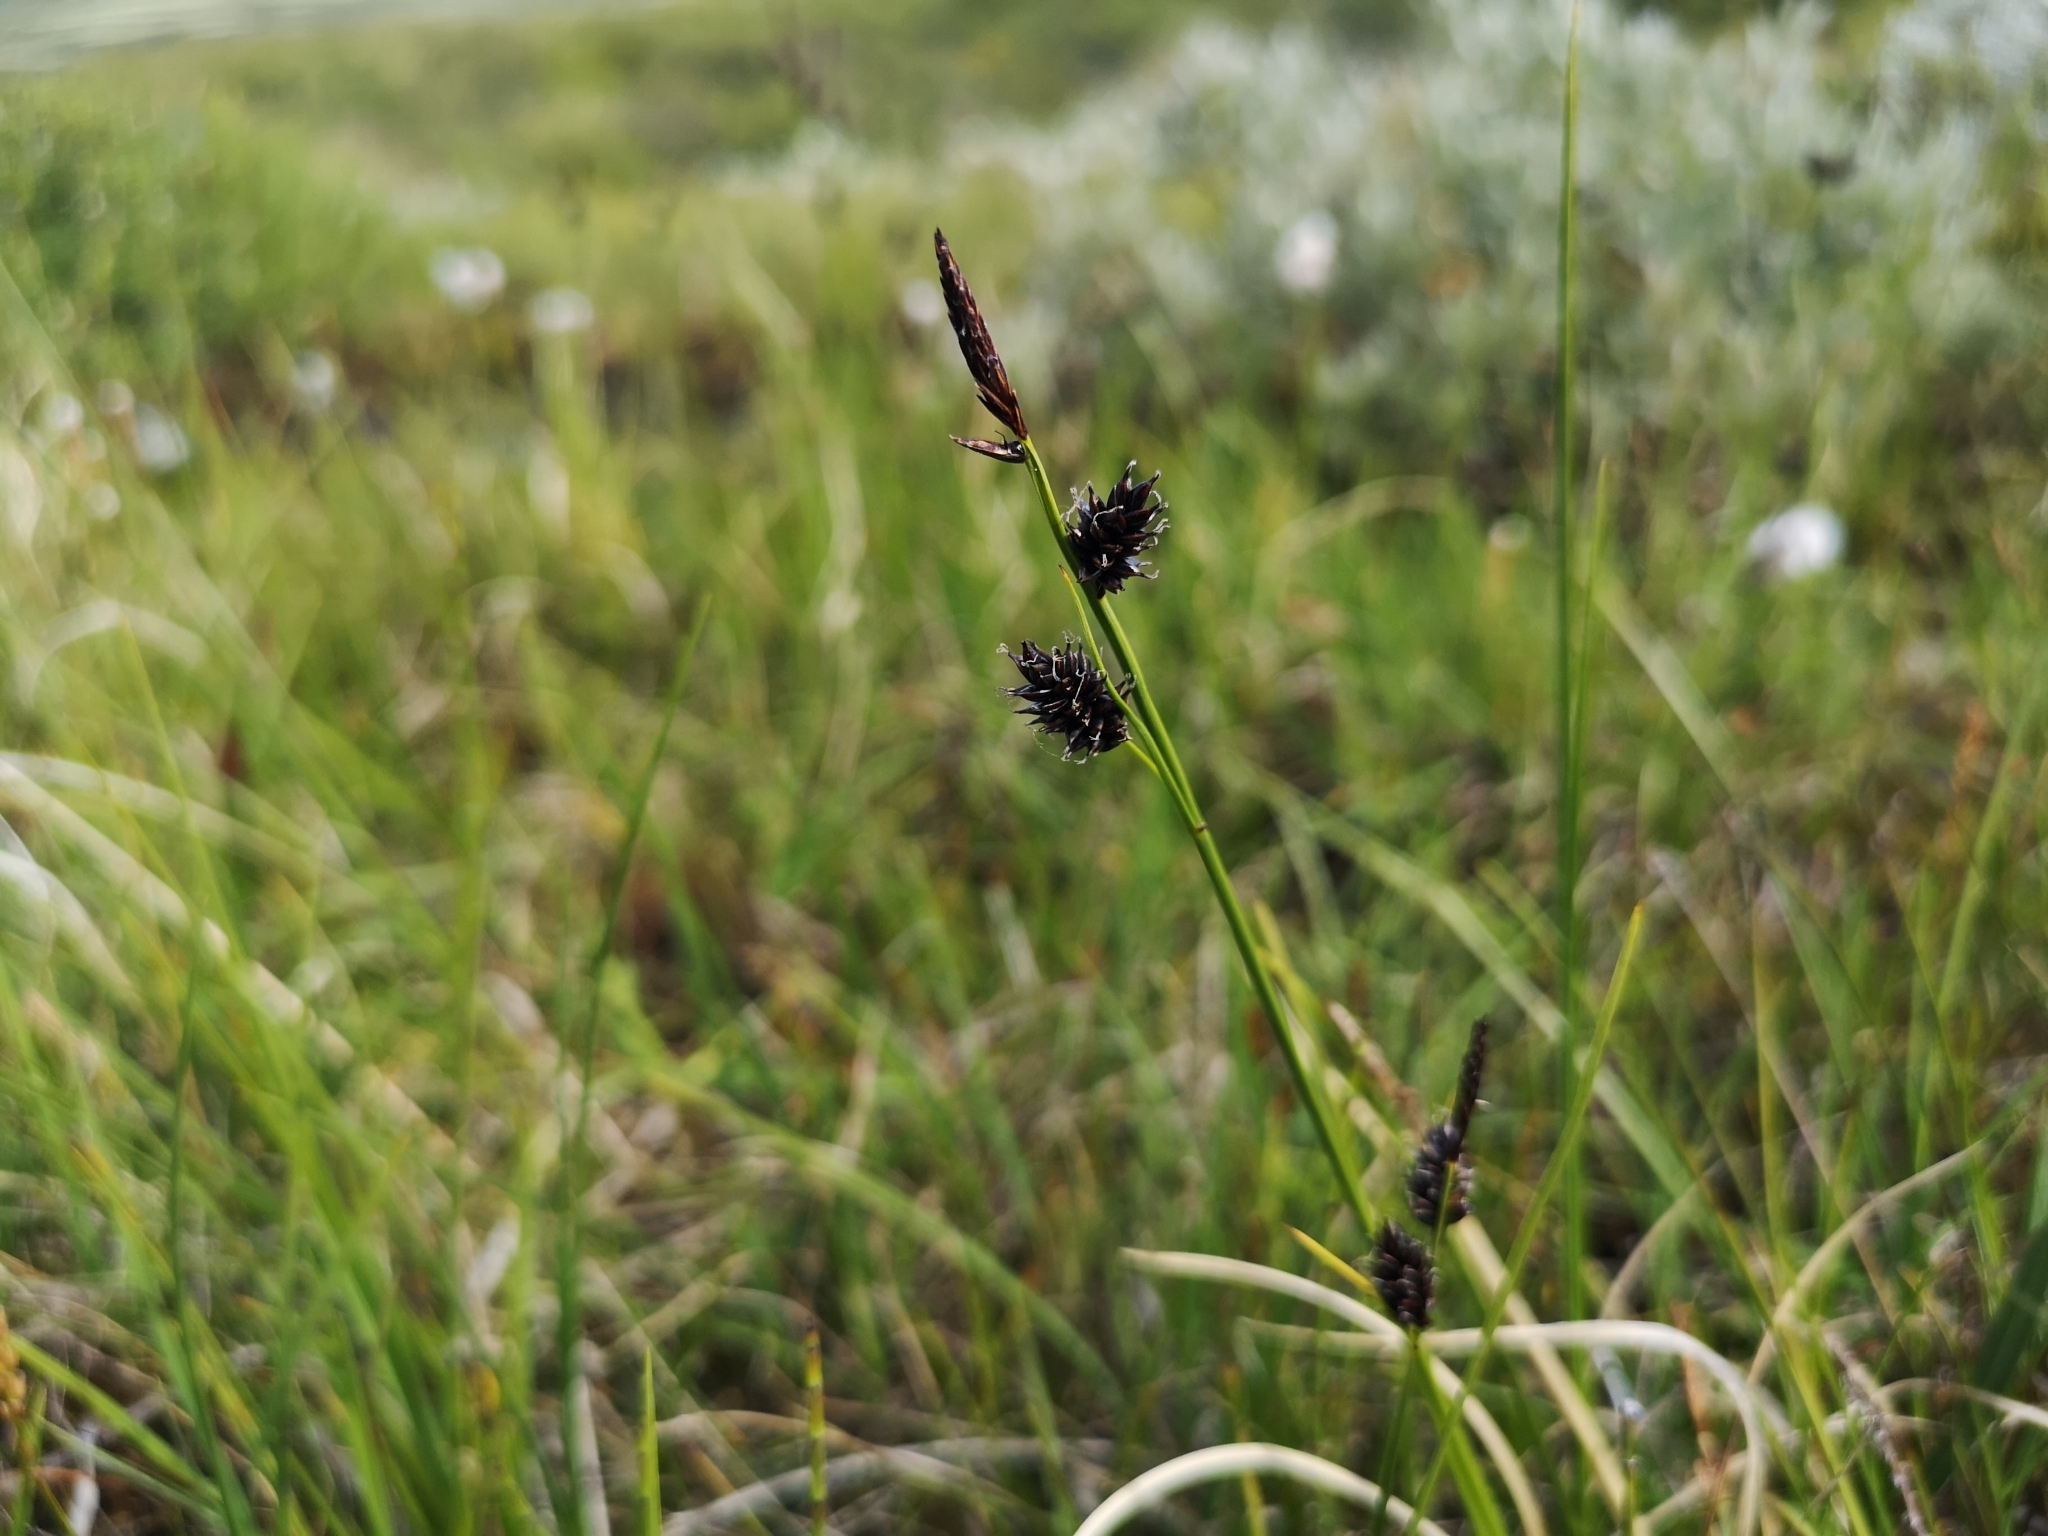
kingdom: Plantae
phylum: Tracheophyta
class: Liliopsida
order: Poales
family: Cyperaceae
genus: Carex
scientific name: Carex saxatilis
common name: Russet sedge
